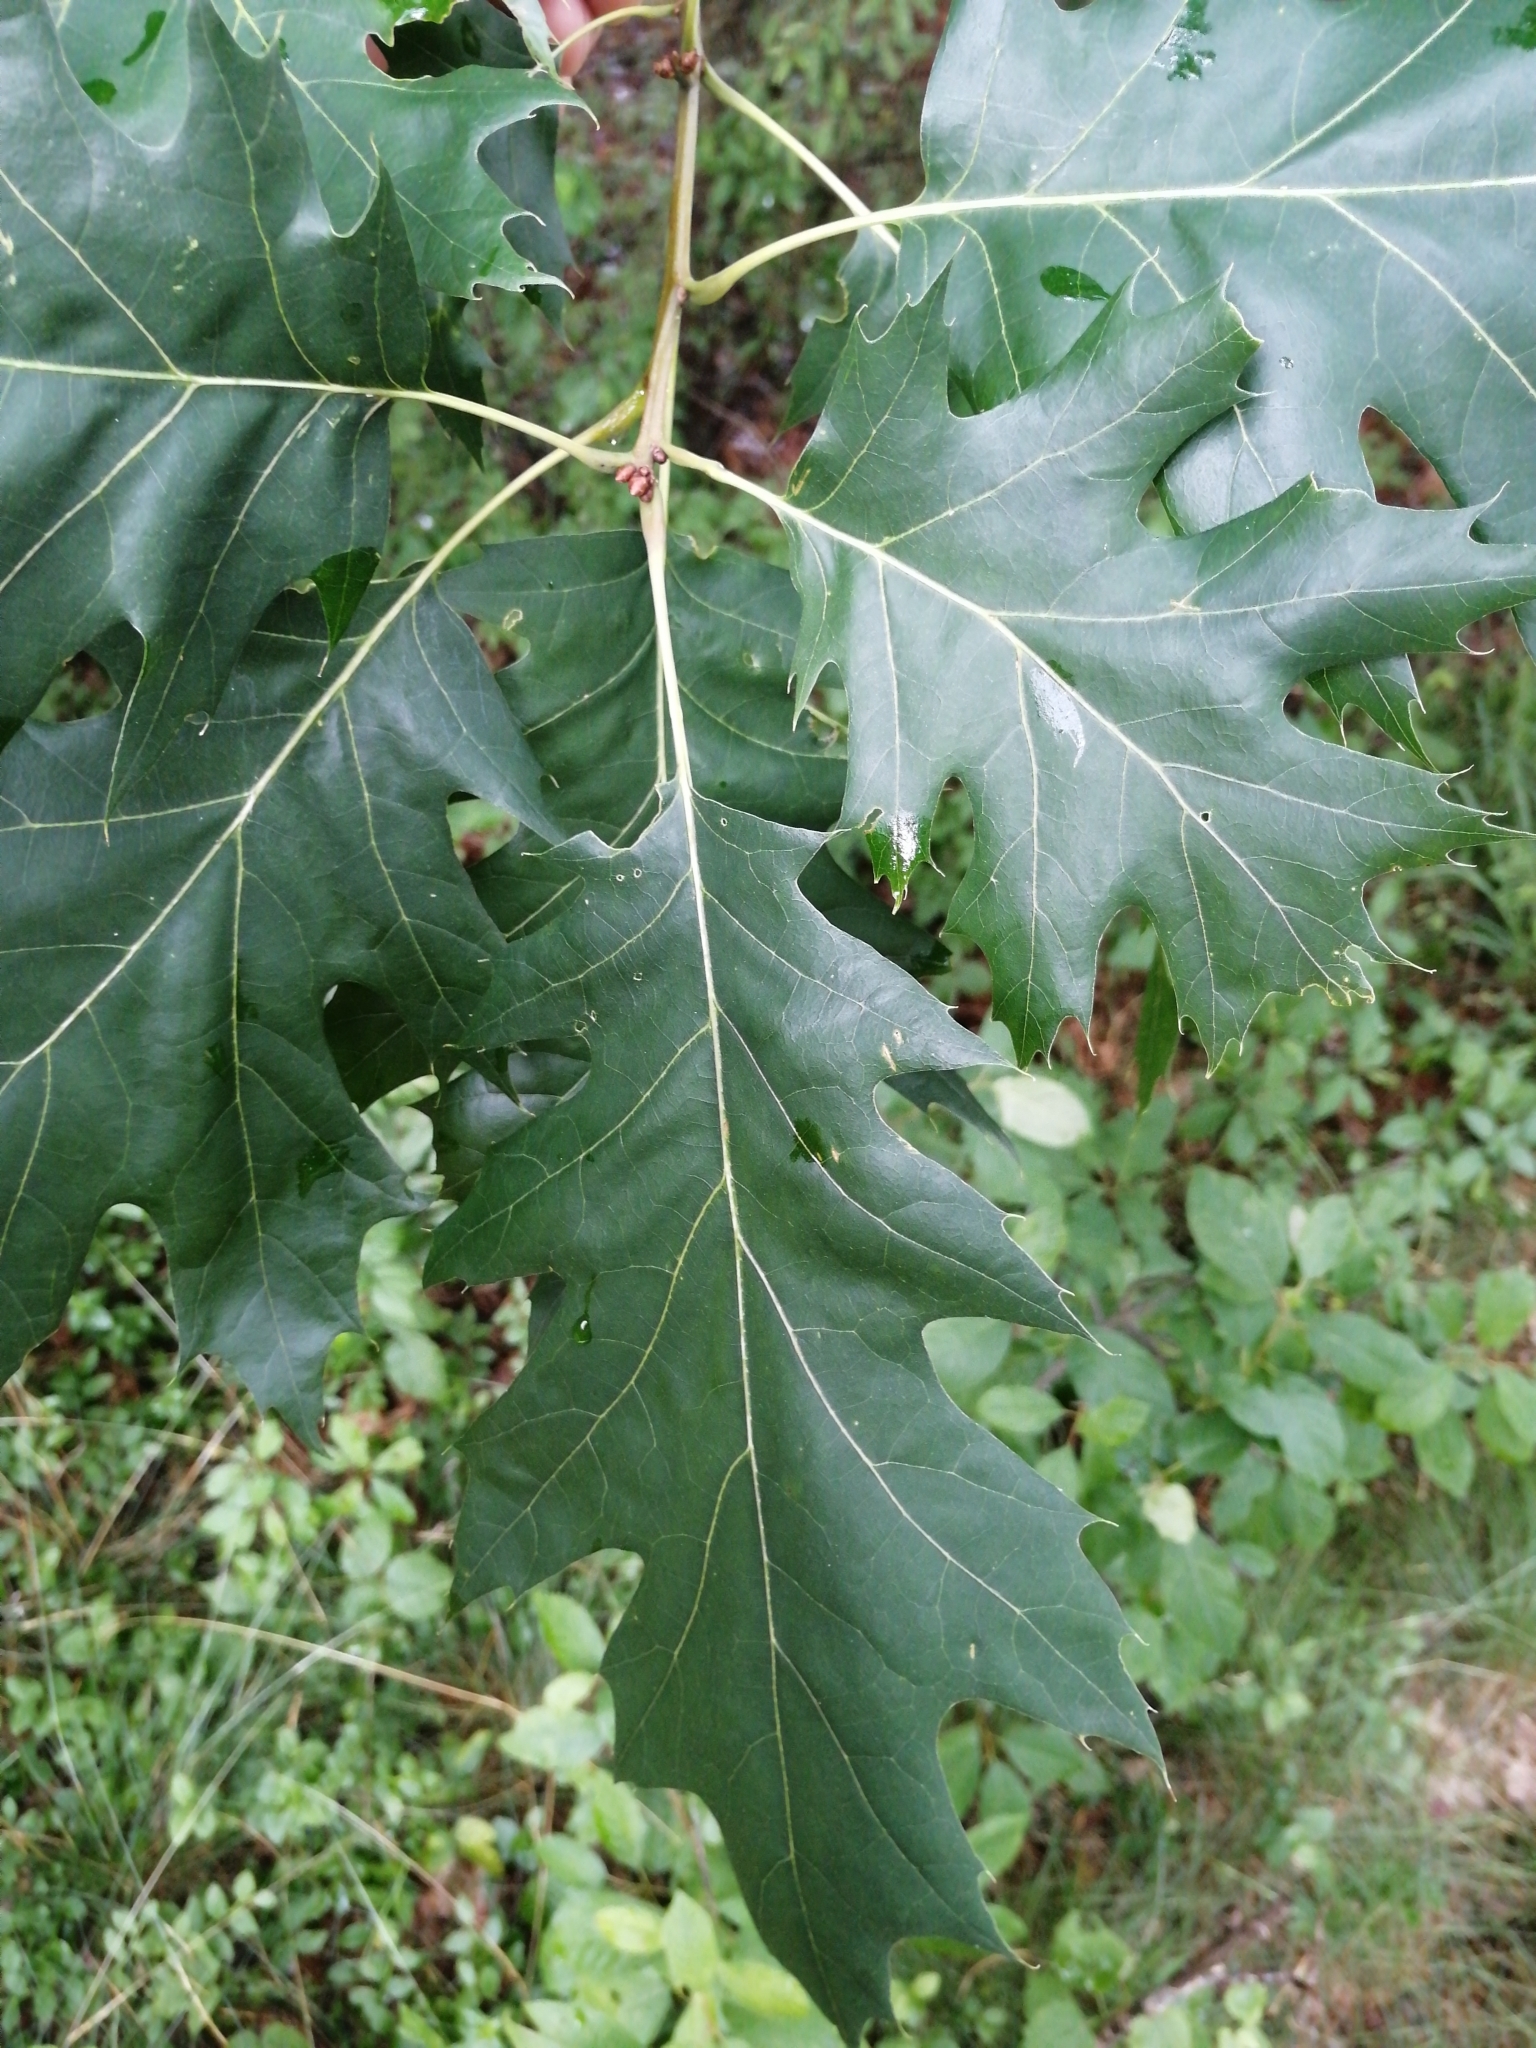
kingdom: Plantae
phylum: Tracheophyta
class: Magnoliopsida
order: Fagales
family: Fagaceae
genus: Quercus
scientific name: Quercus rubra
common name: Red oak
